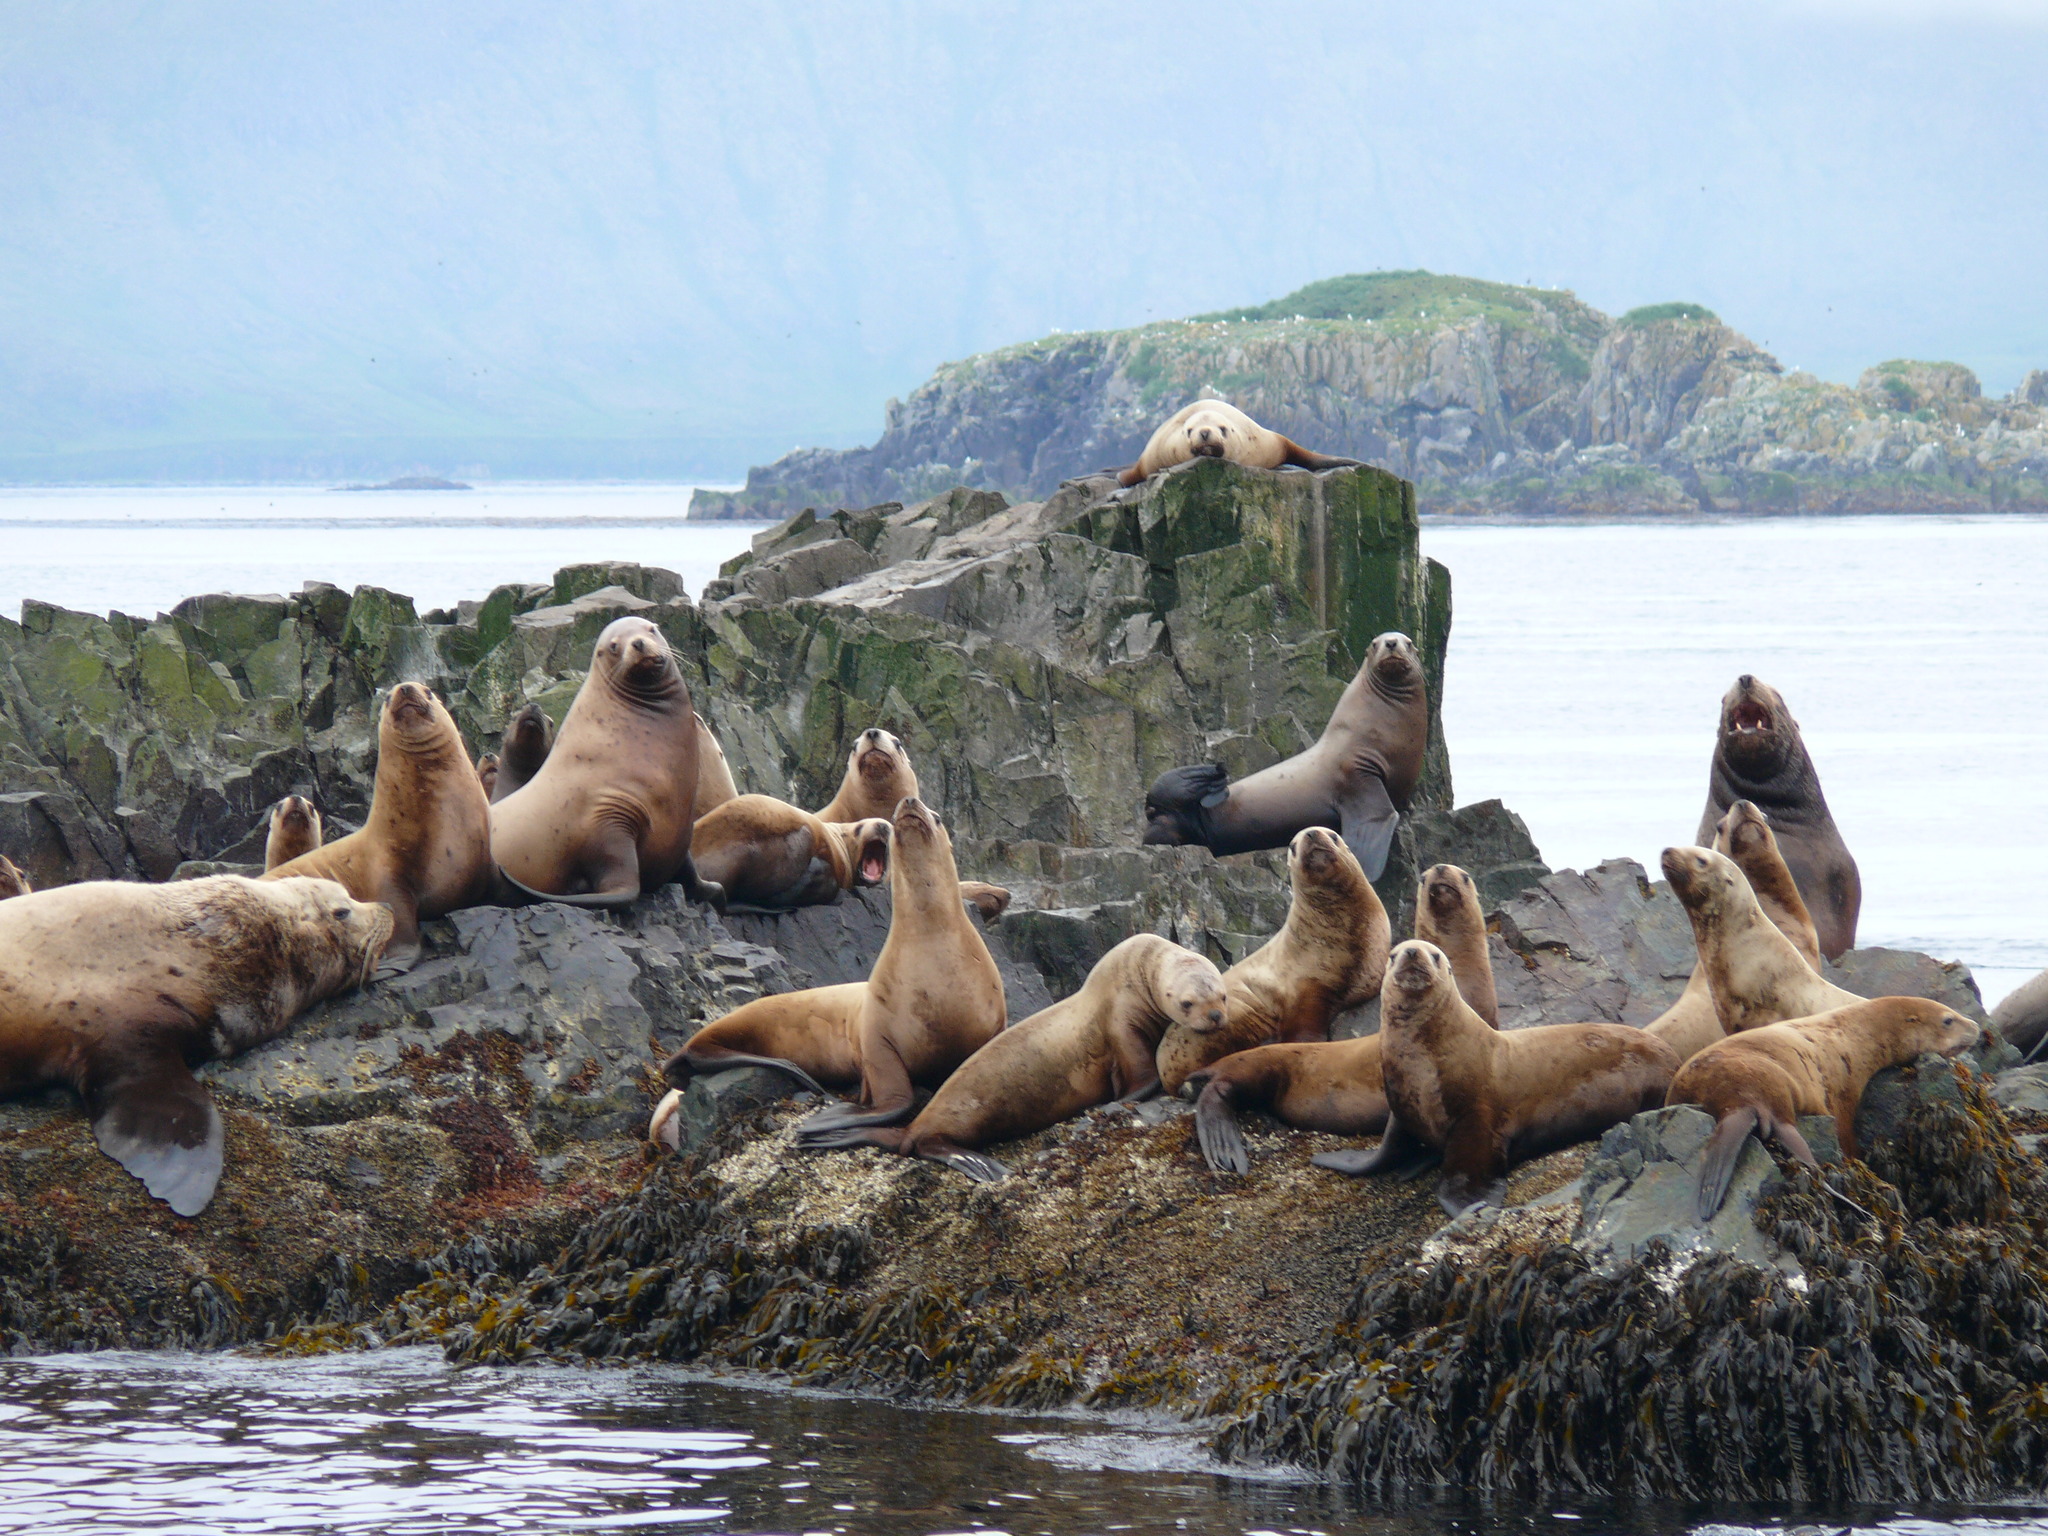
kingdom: Animalia
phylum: Chordata
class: Mammalia
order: Carnivora
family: Otariidae
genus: Eumetopias
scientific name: Eumetopias jubatus
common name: Steller sea lion
